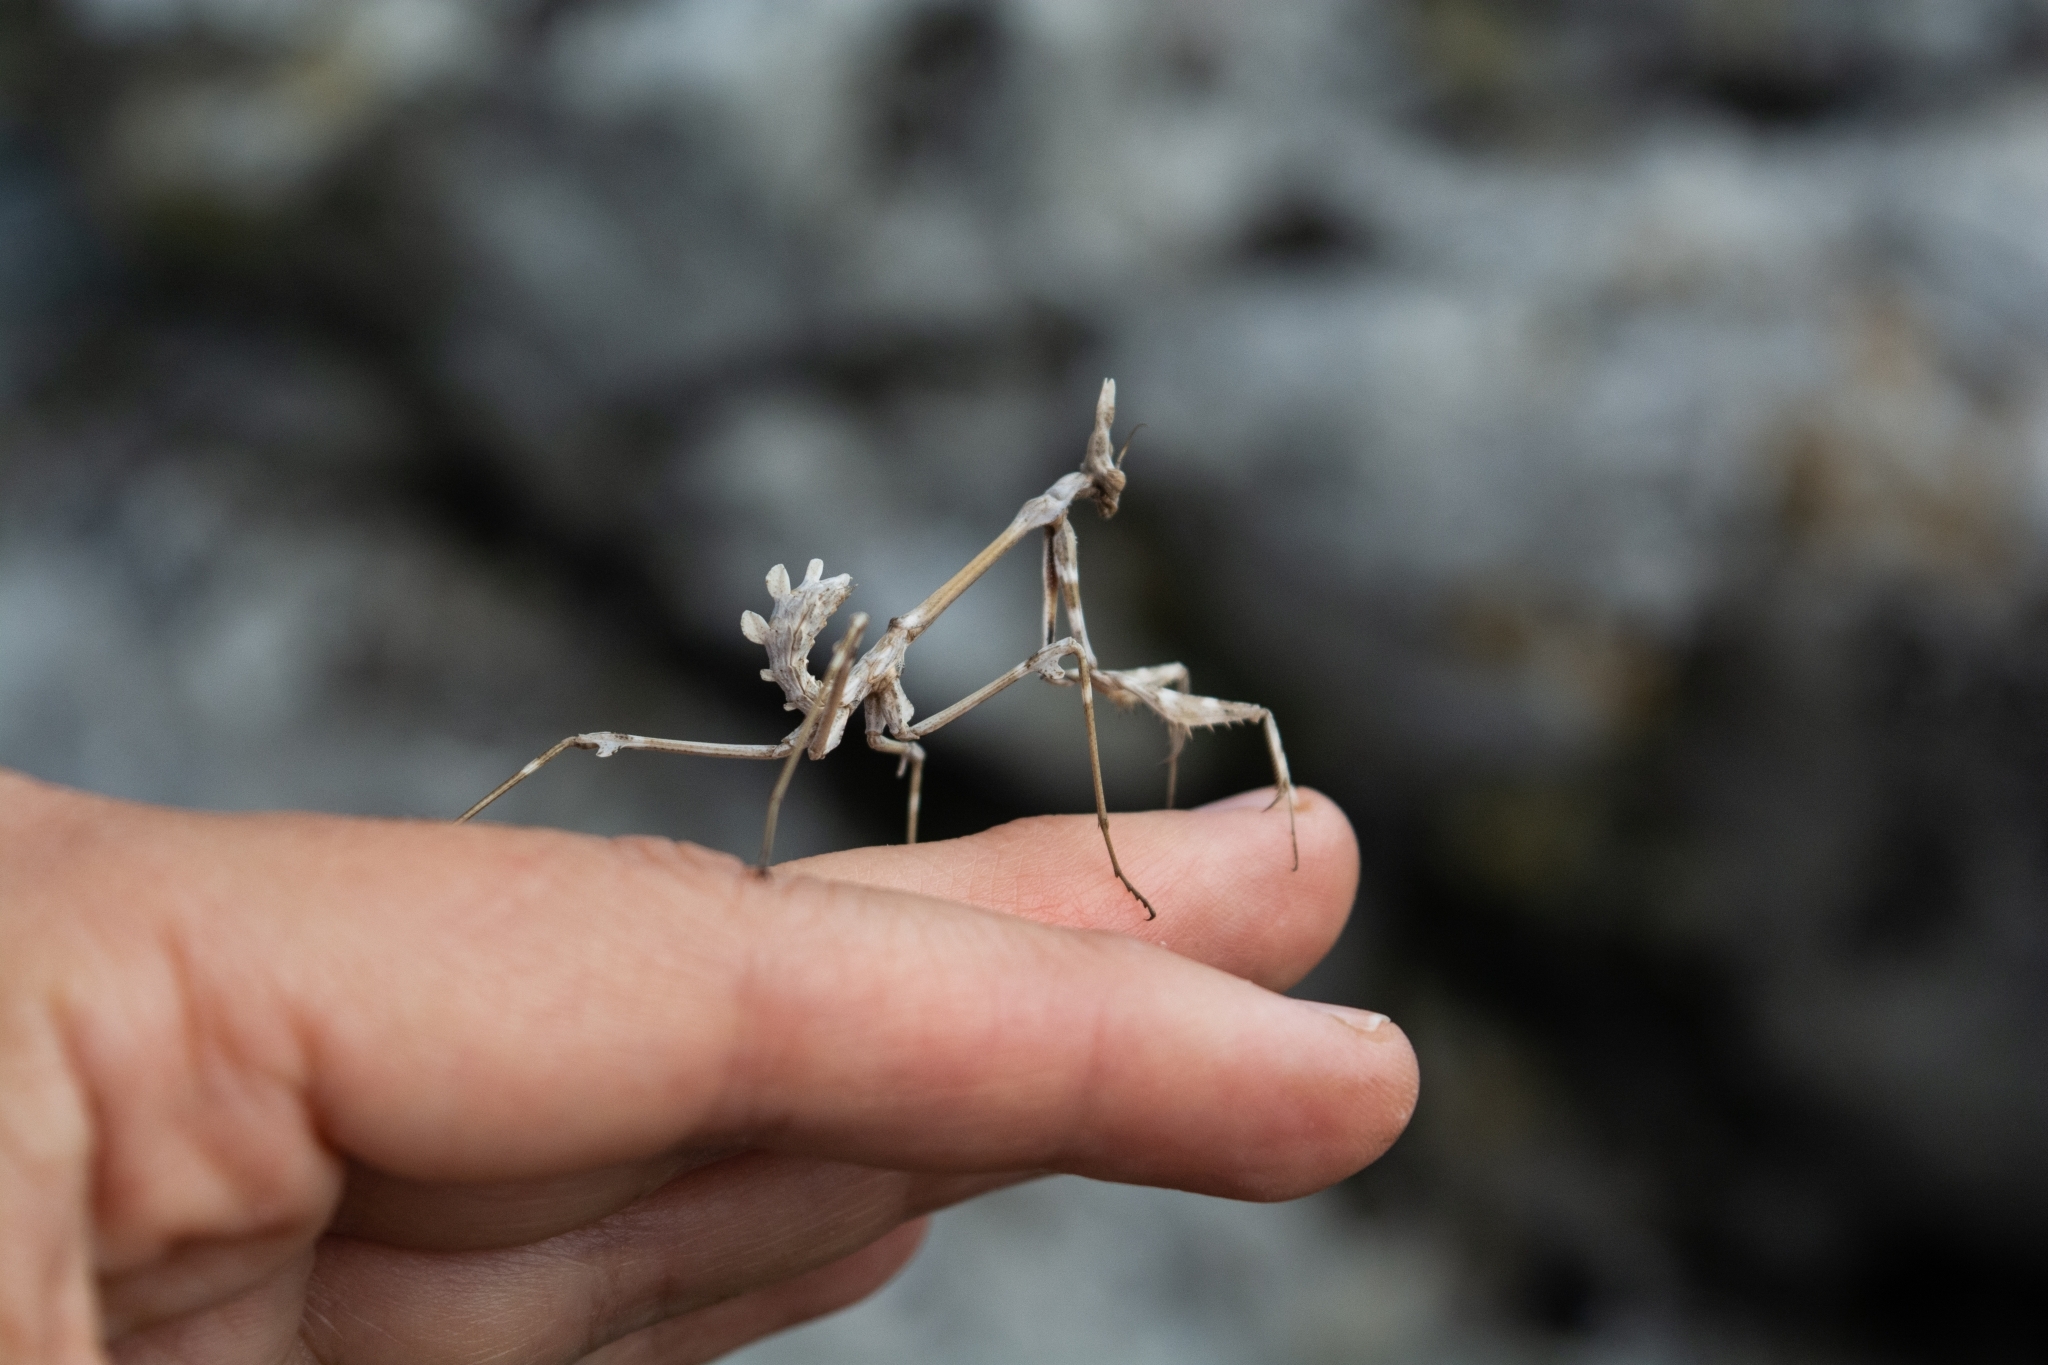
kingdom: Animalia
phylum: Arthropoda
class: Insecta
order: Mantodea
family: Empusidae
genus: Empusa
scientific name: Empusa fasciata
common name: Devil's mare
